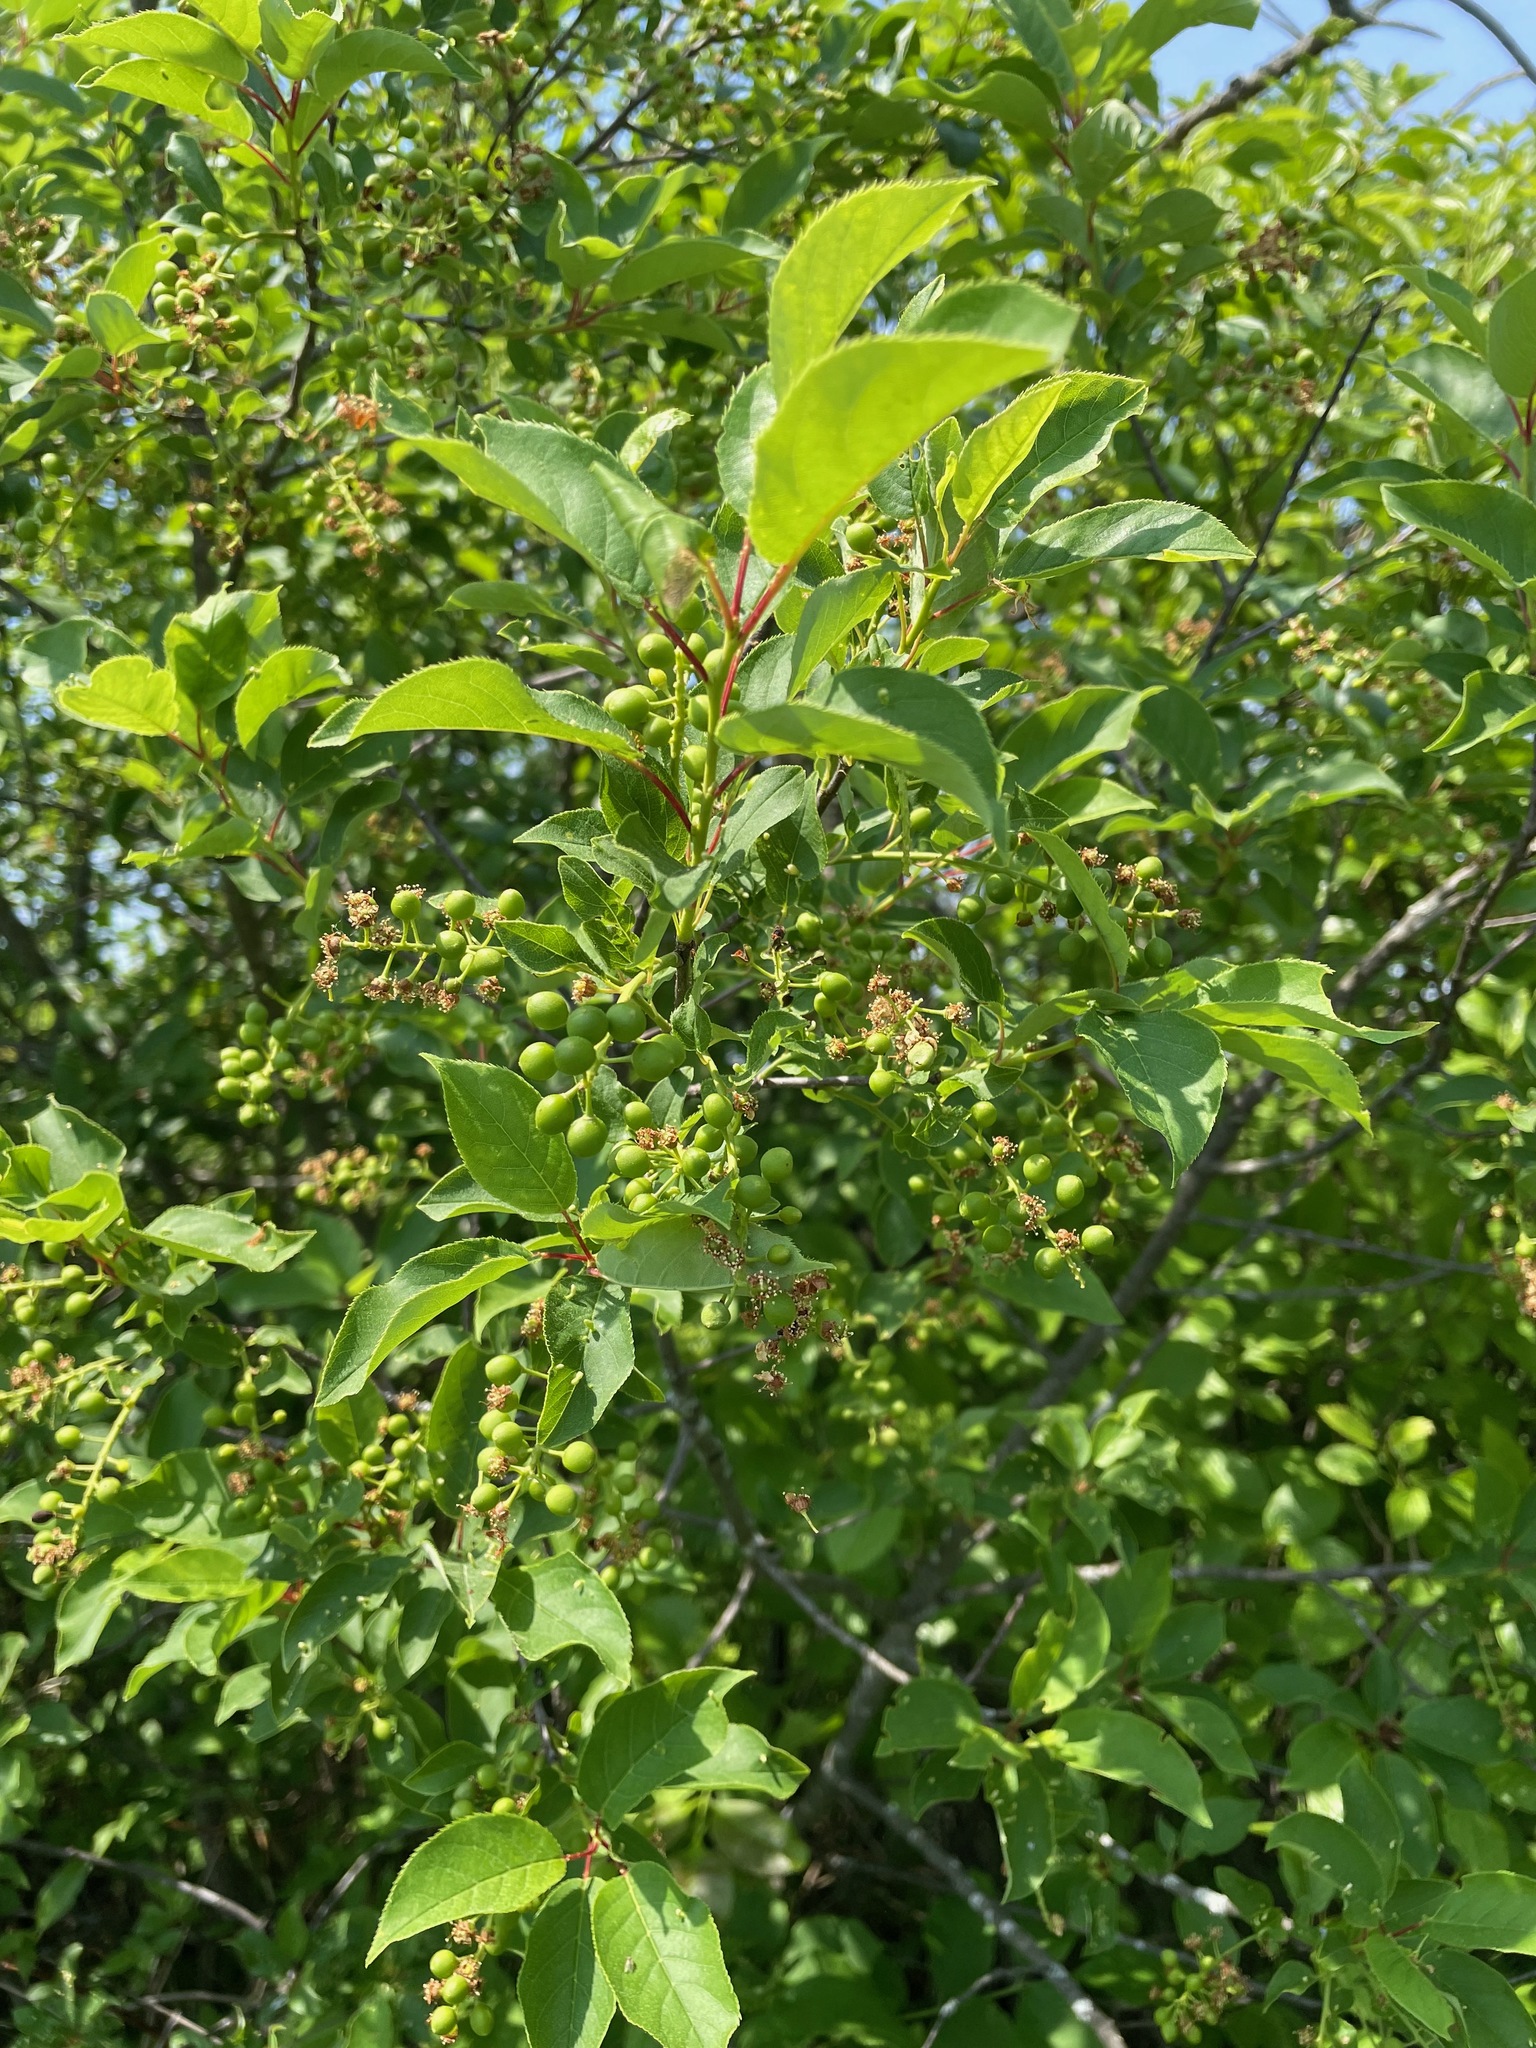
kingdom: Plantae
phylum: Tracheophyta
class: Magnoliopsida
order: Rosales
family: Rosaceae
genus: Prunus
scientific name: Prunus virginiana
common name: Chokecherry
